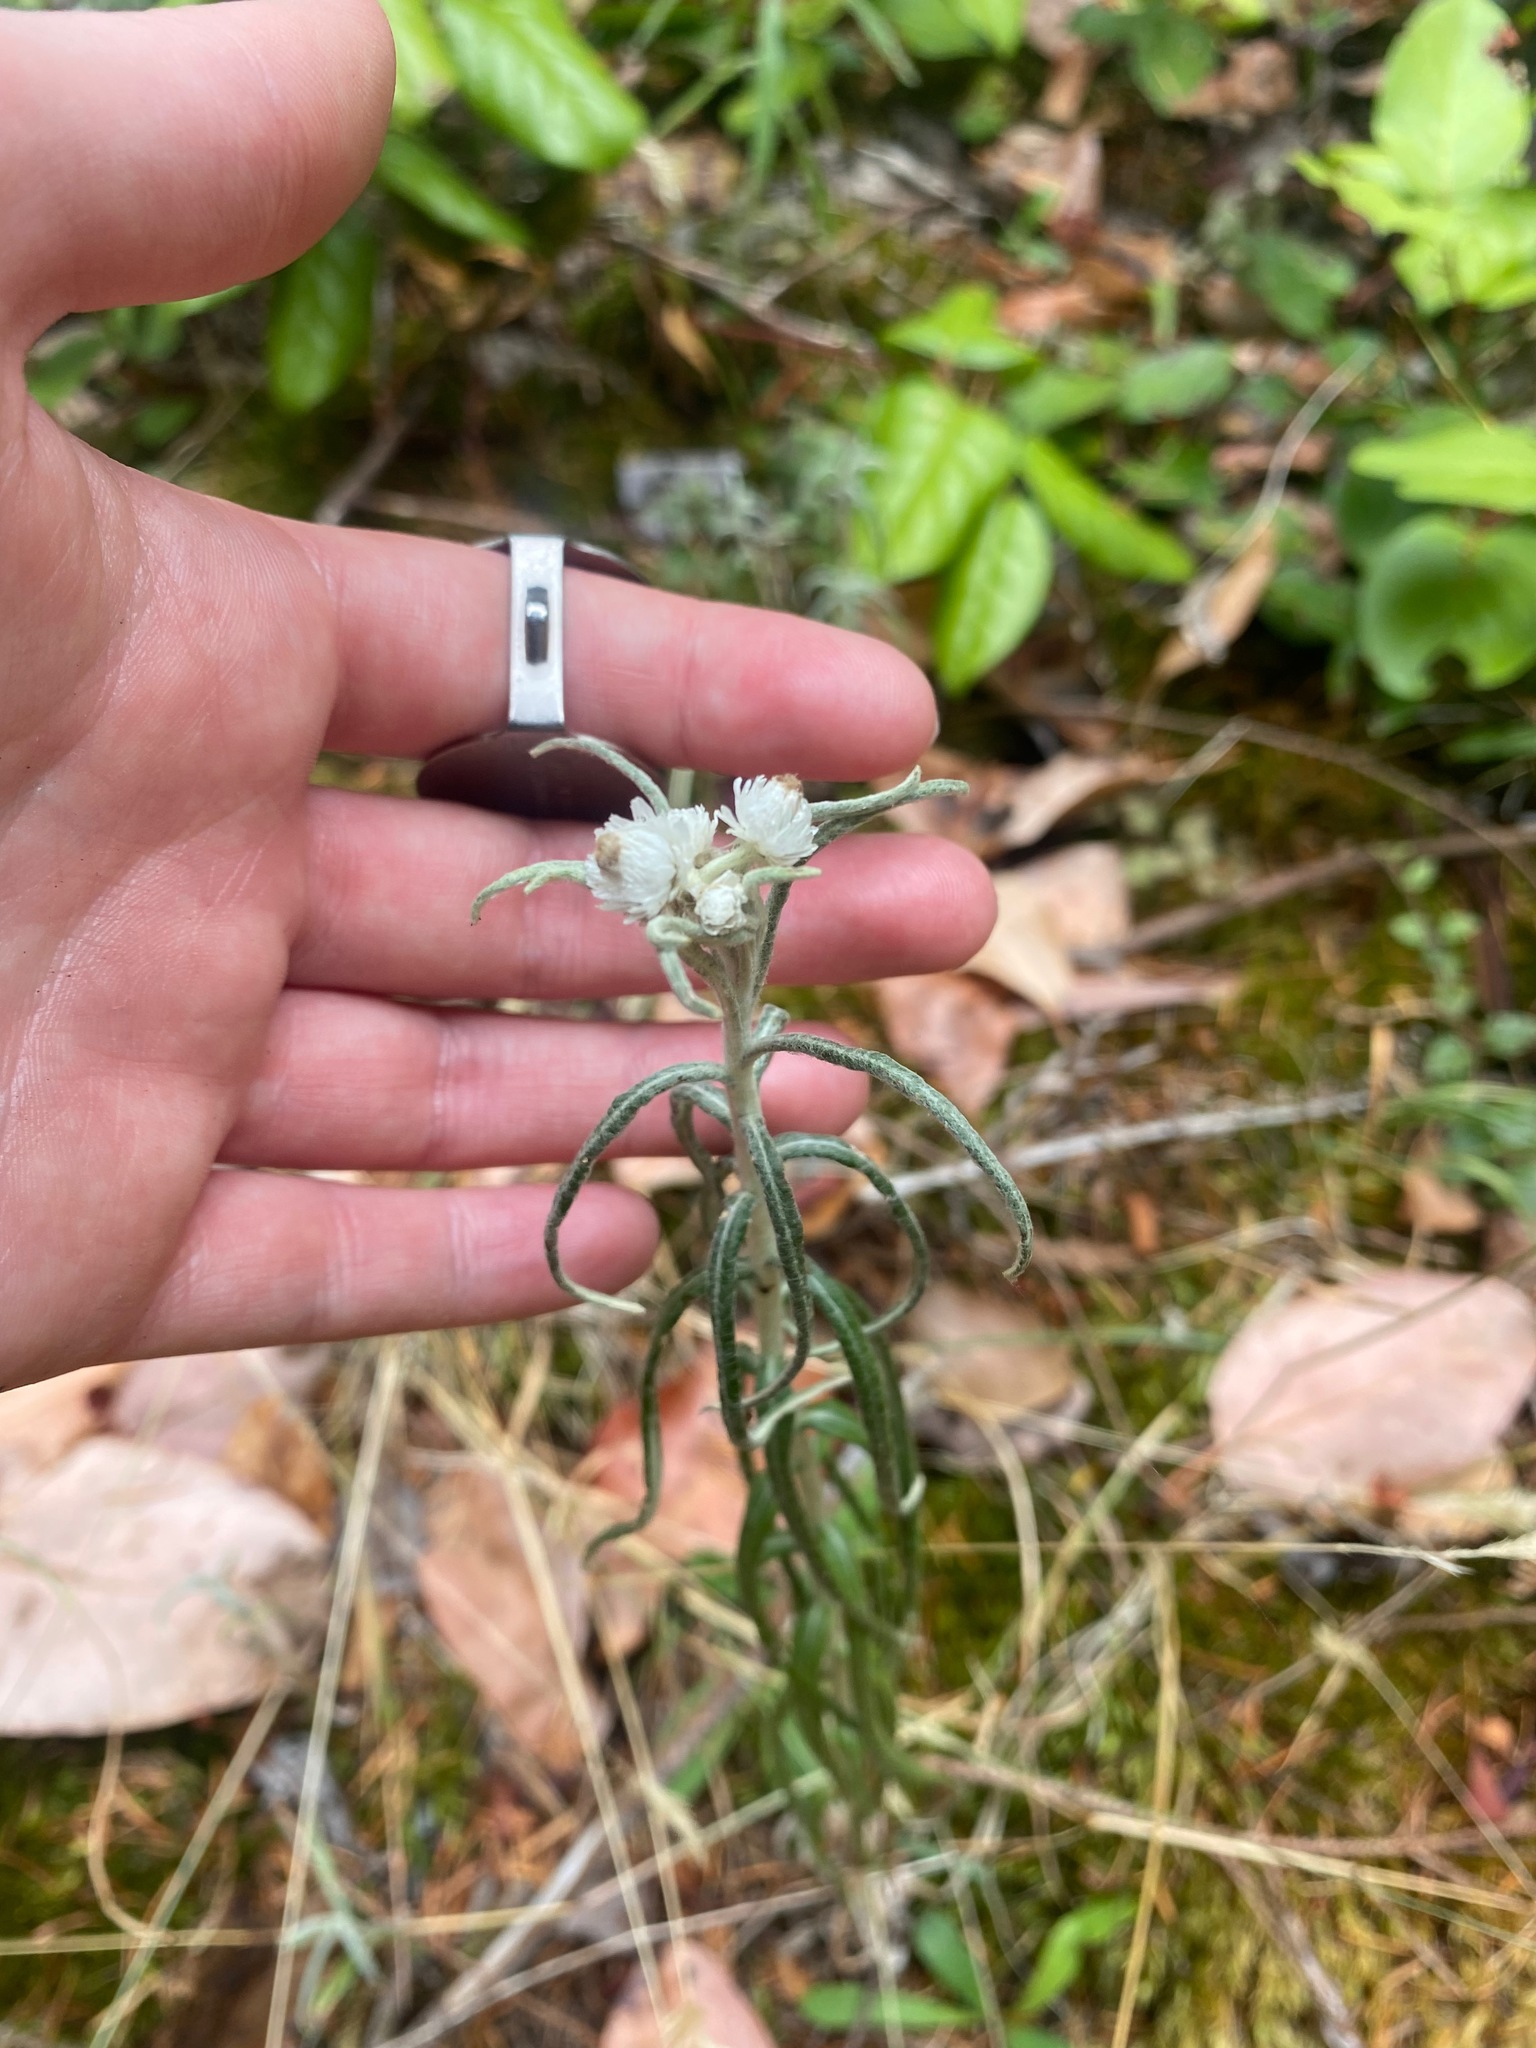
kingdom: Plantae
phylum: Tracheophyta
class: Magnoliopsida
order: Asterales
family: Asteraceae
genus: Anaphalis
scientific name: Anaphalis margaritacea
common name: Pearly everlasting
